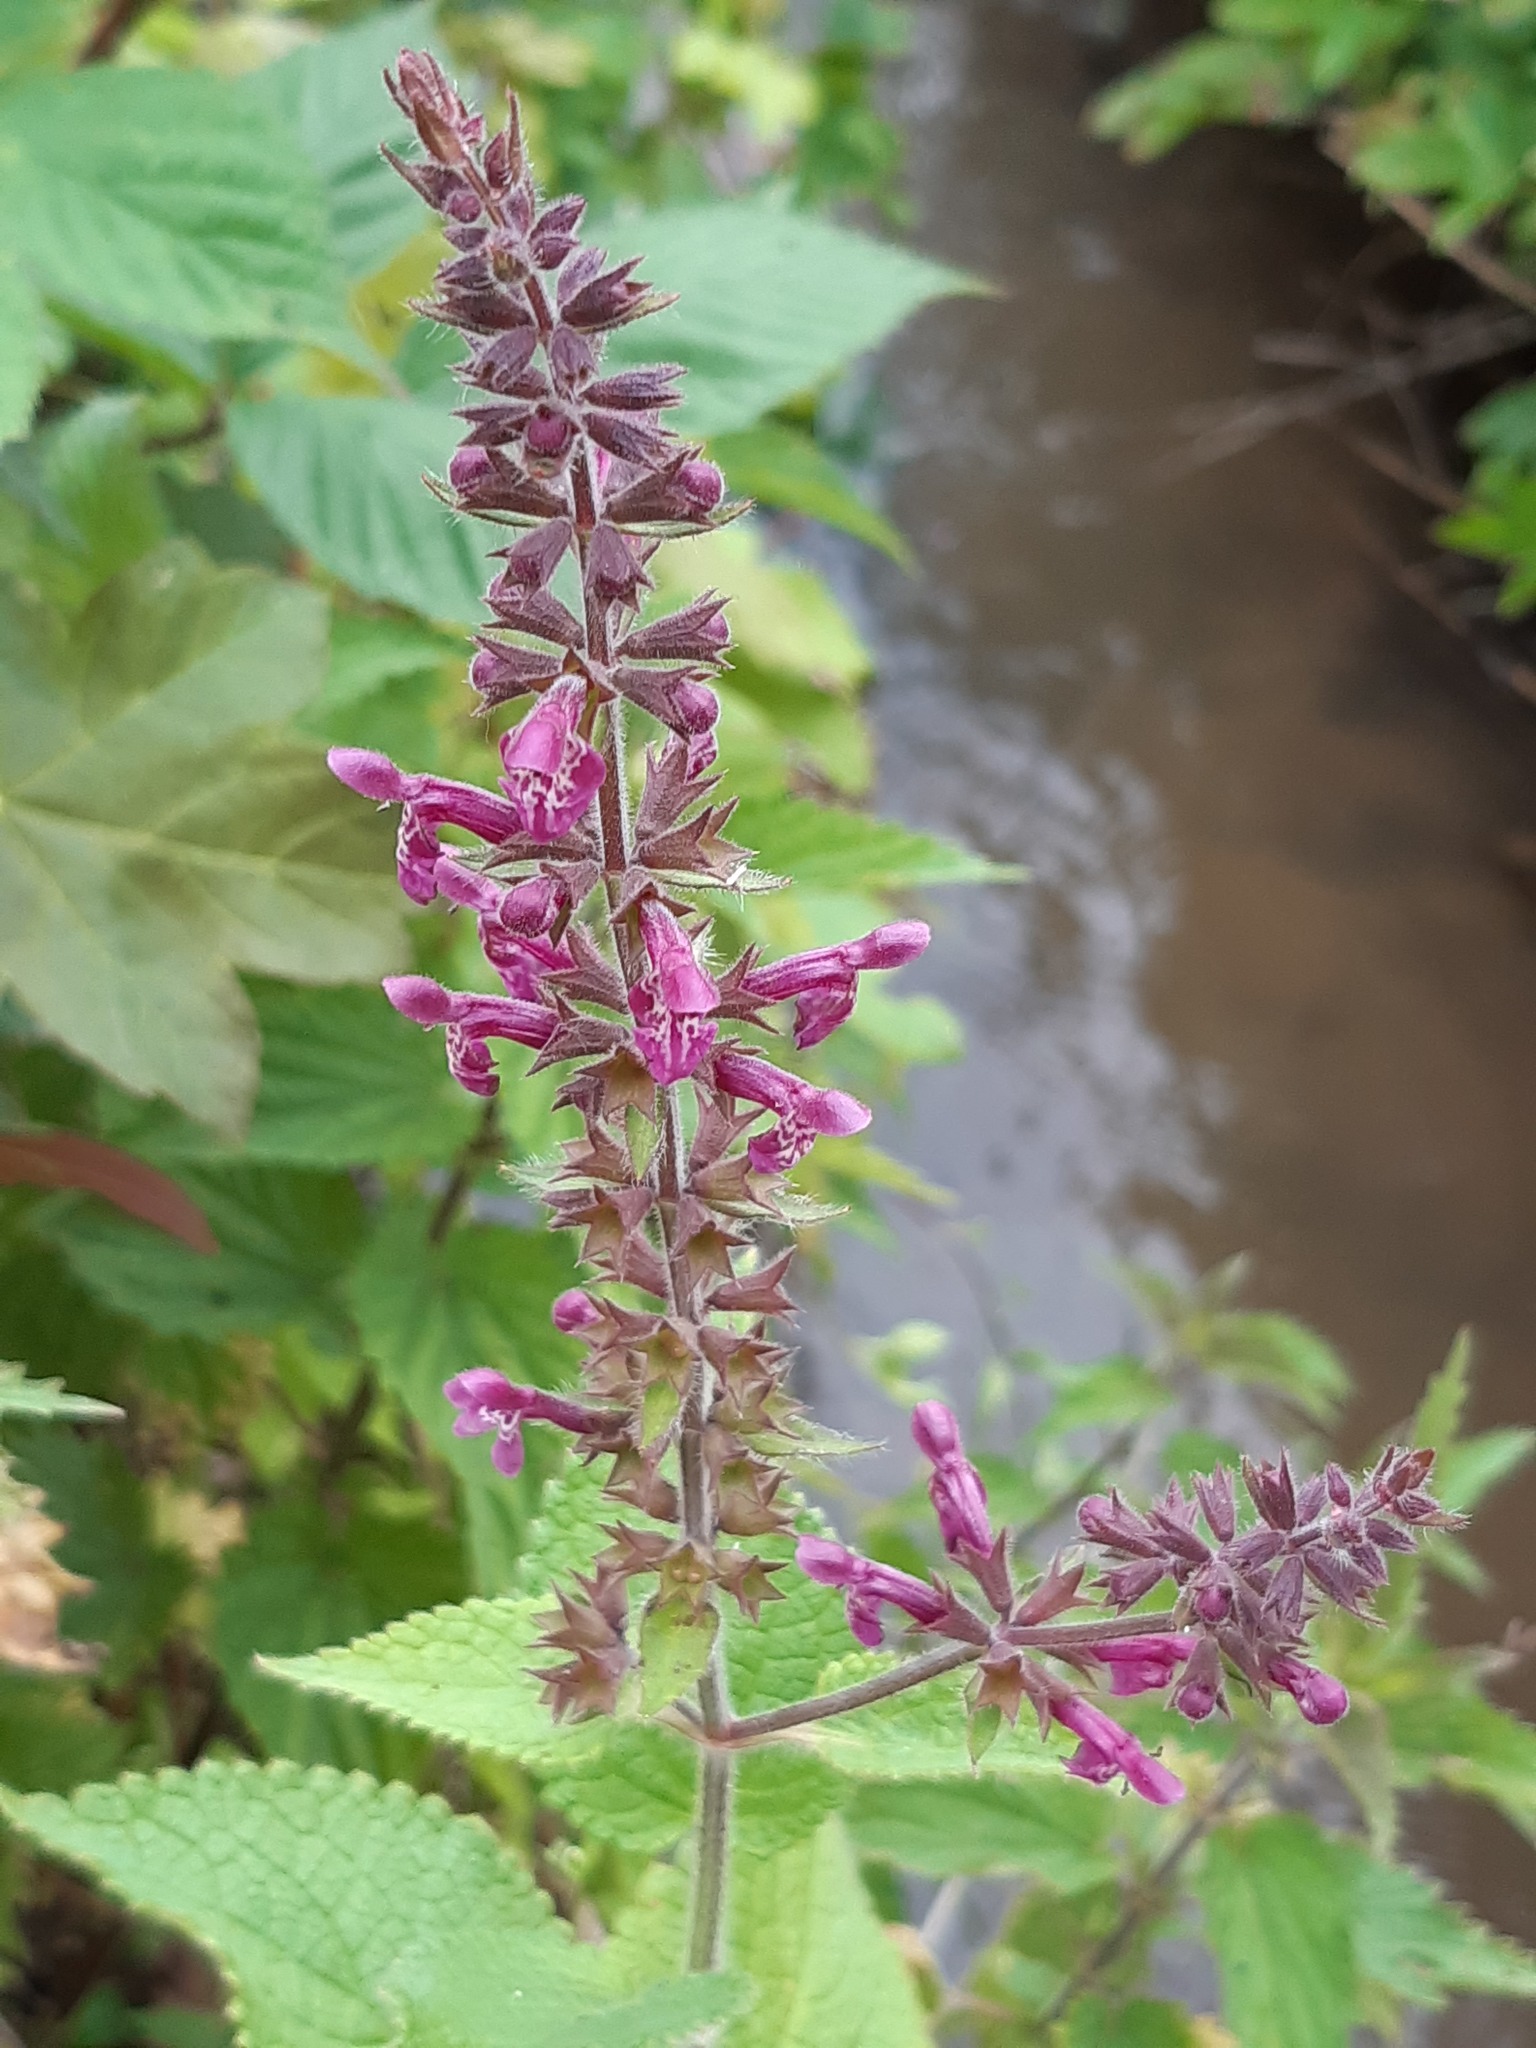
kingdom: Plantae
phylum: Tracheophyta
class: Magnoliopsida
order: Lamiales
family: Lamiaceae
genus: Stachys
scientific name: Stachys sylvatica
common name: Hedge woundwort
